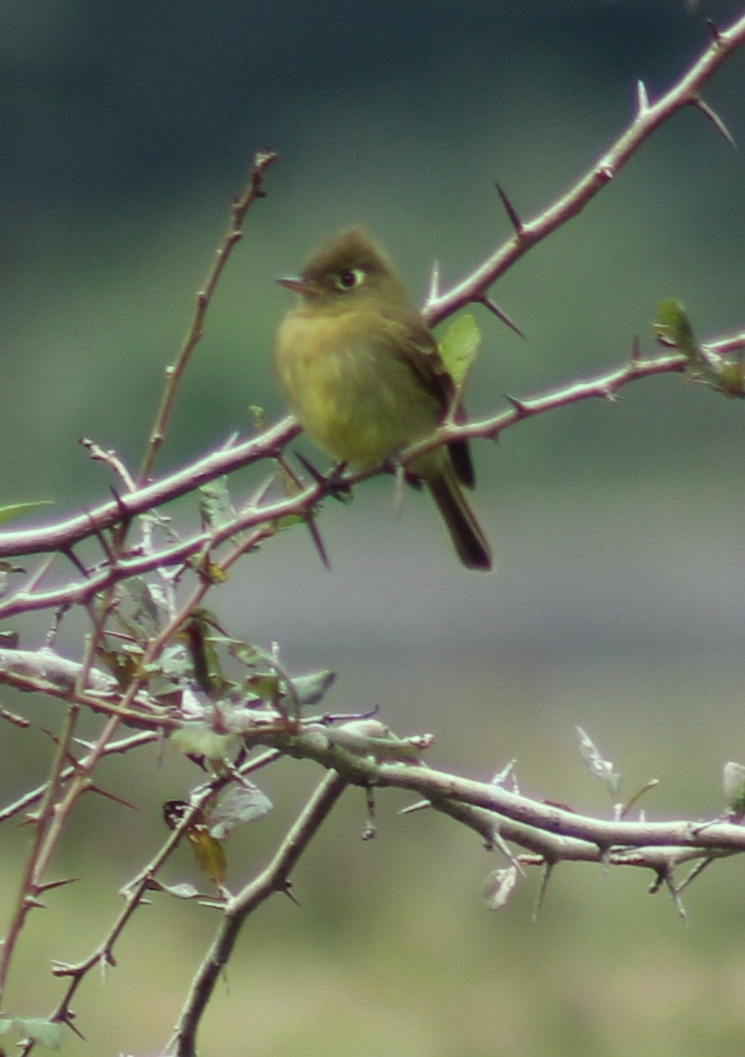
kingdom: Animalia
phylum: Chordata
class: Aves
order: Passeriformes
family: Tyrannidae
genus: Empidonax
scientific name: Empidonax difficilis
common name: Pacific-slope flycatcher
